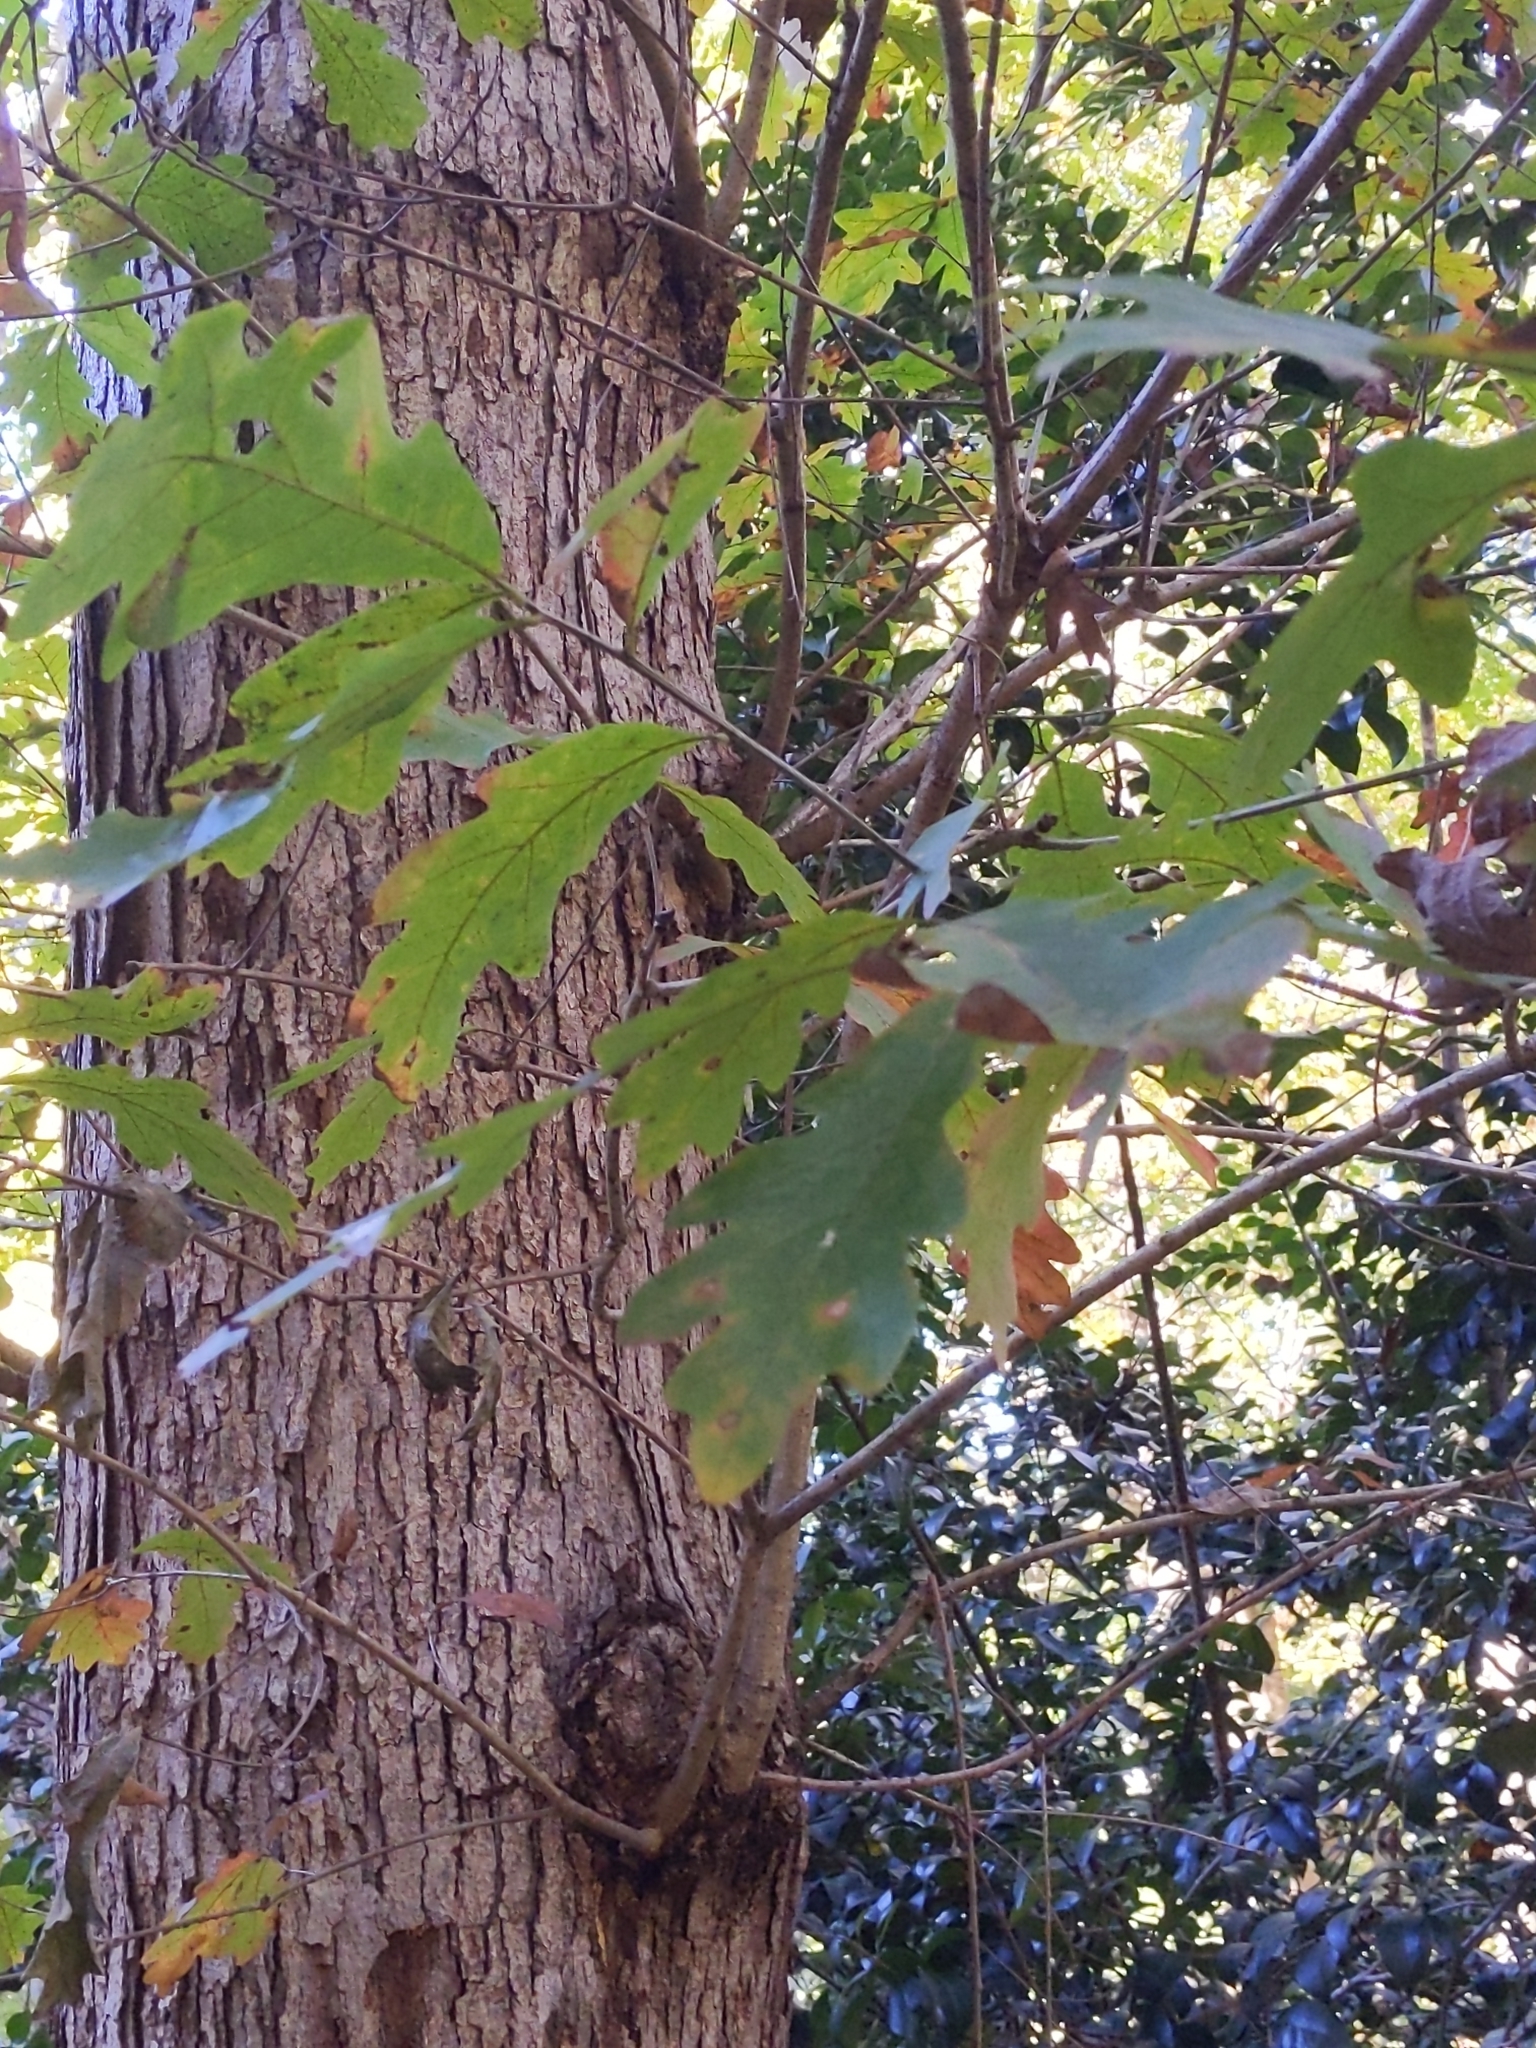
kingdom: Plantae
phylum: Tracheophyta
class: Magnoliopsida
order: Fagales
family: Fagaceae
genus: Quercus
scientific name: Quercus alba
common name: White oak
